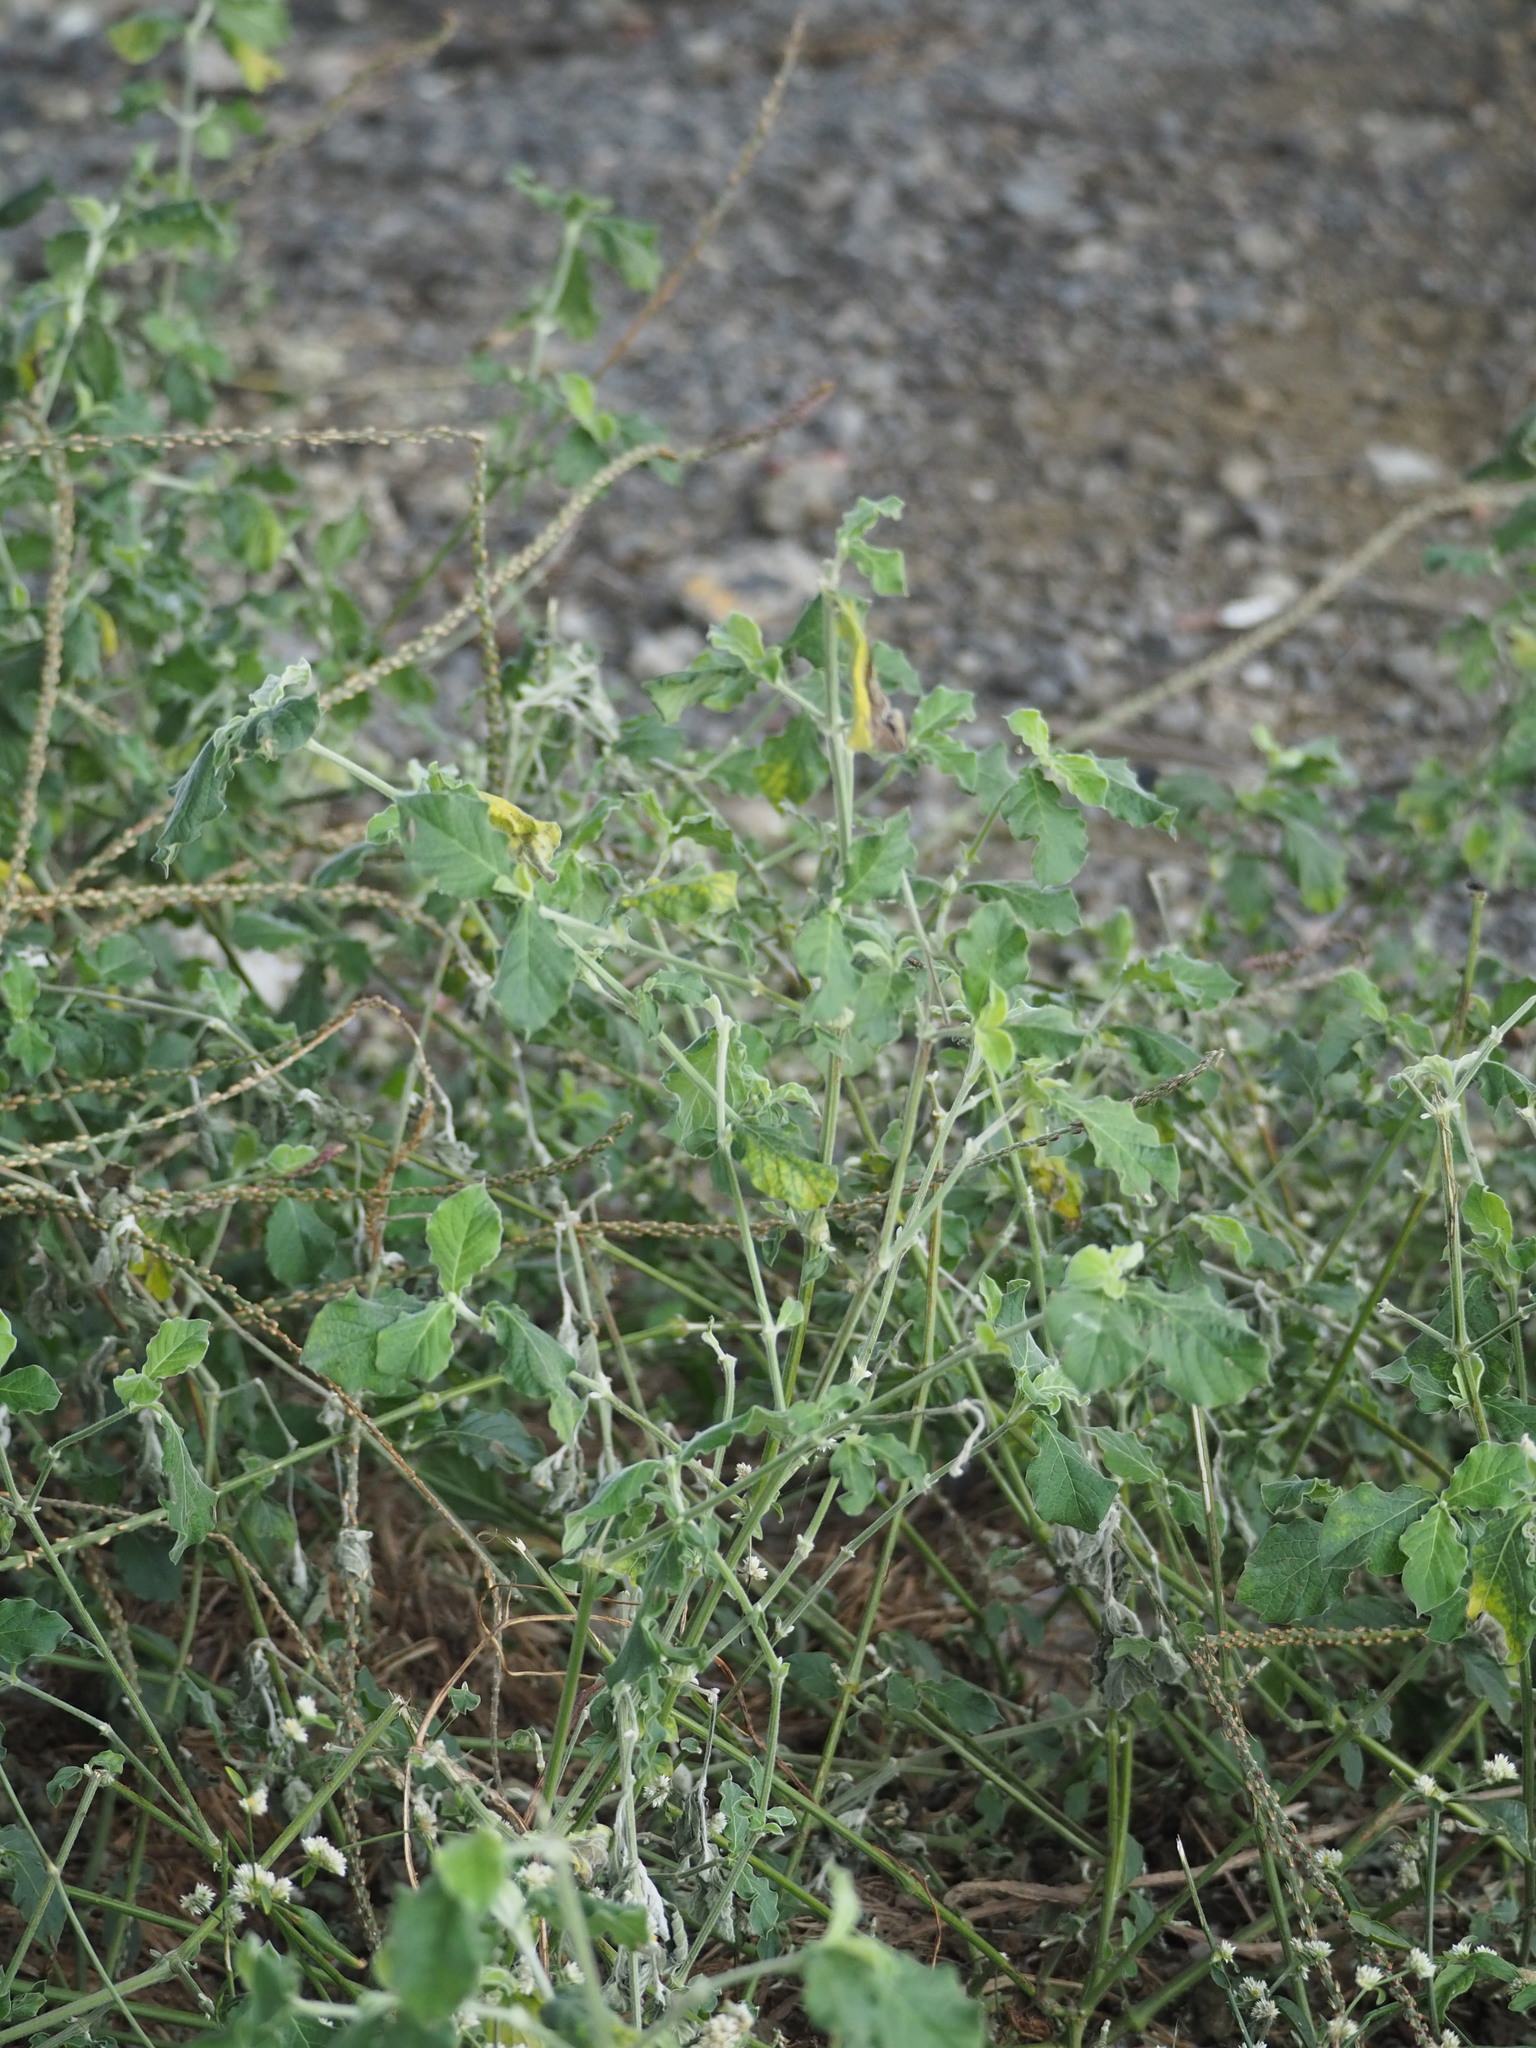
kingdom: Plantae
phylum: Tracheophyta
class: Magnoliopsida
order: Caryophyllales
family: Amaranthaceae
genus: Achyranthes
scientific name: Achyranthes aspera
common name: Devil's horsewhip
